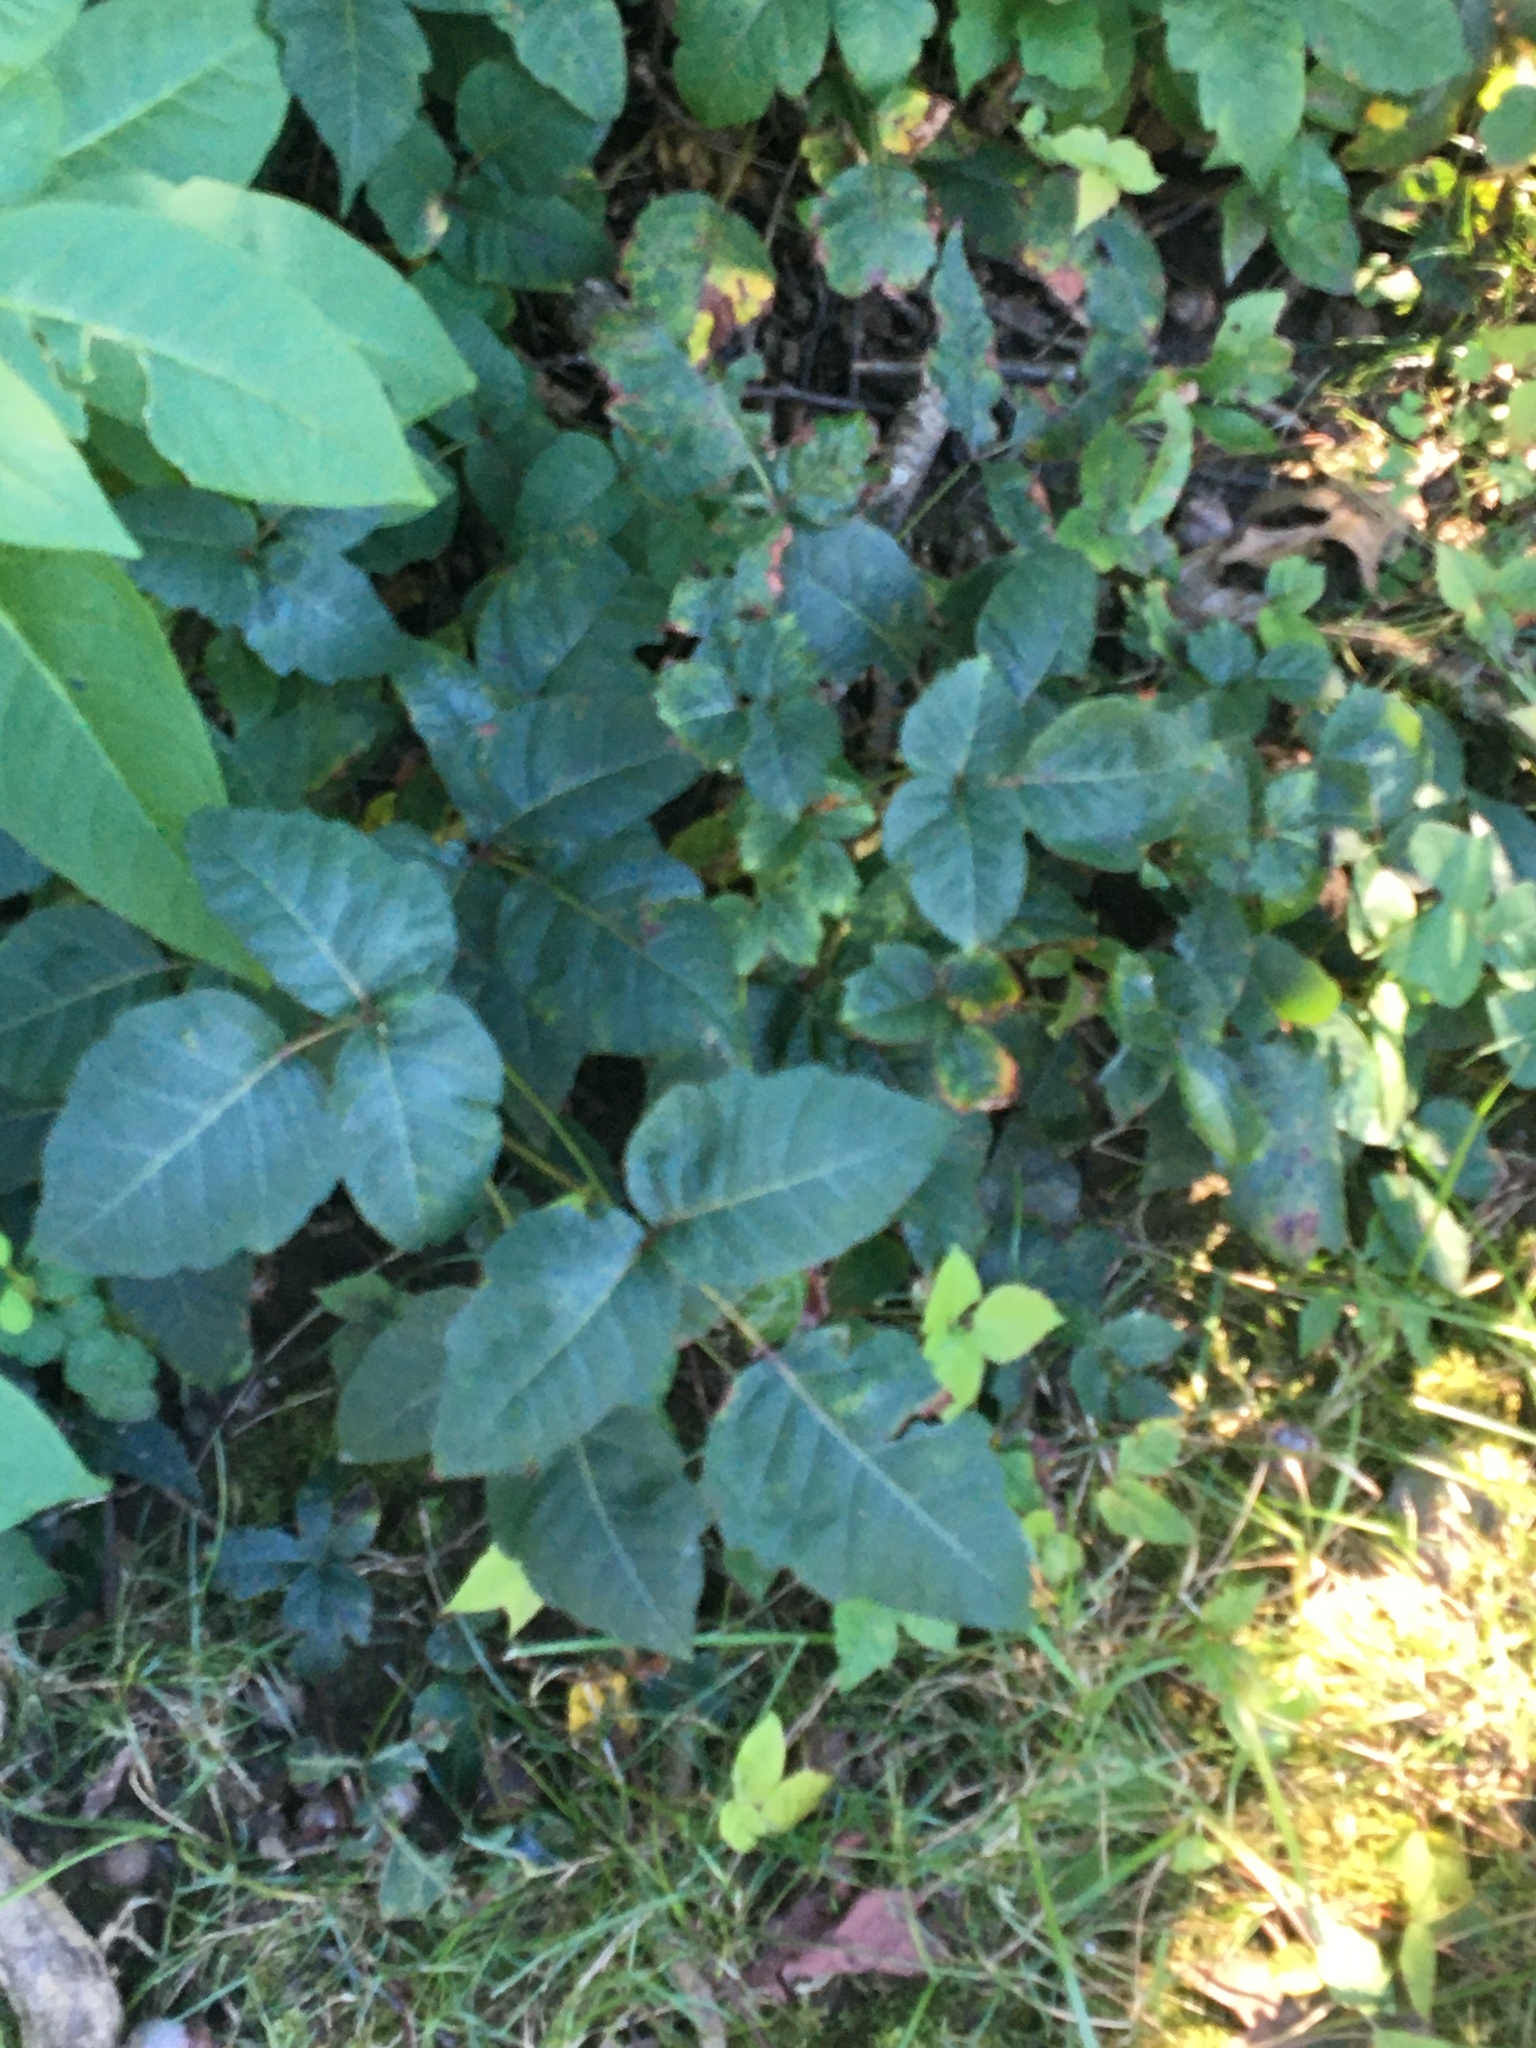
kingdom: Plantae
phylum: Tracheophyta
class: Magnoliopsida
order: Sapindales
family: Anacardiaceae
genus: Toxicodendron
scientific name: Toxicodendron radicans
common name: Poison ivy
